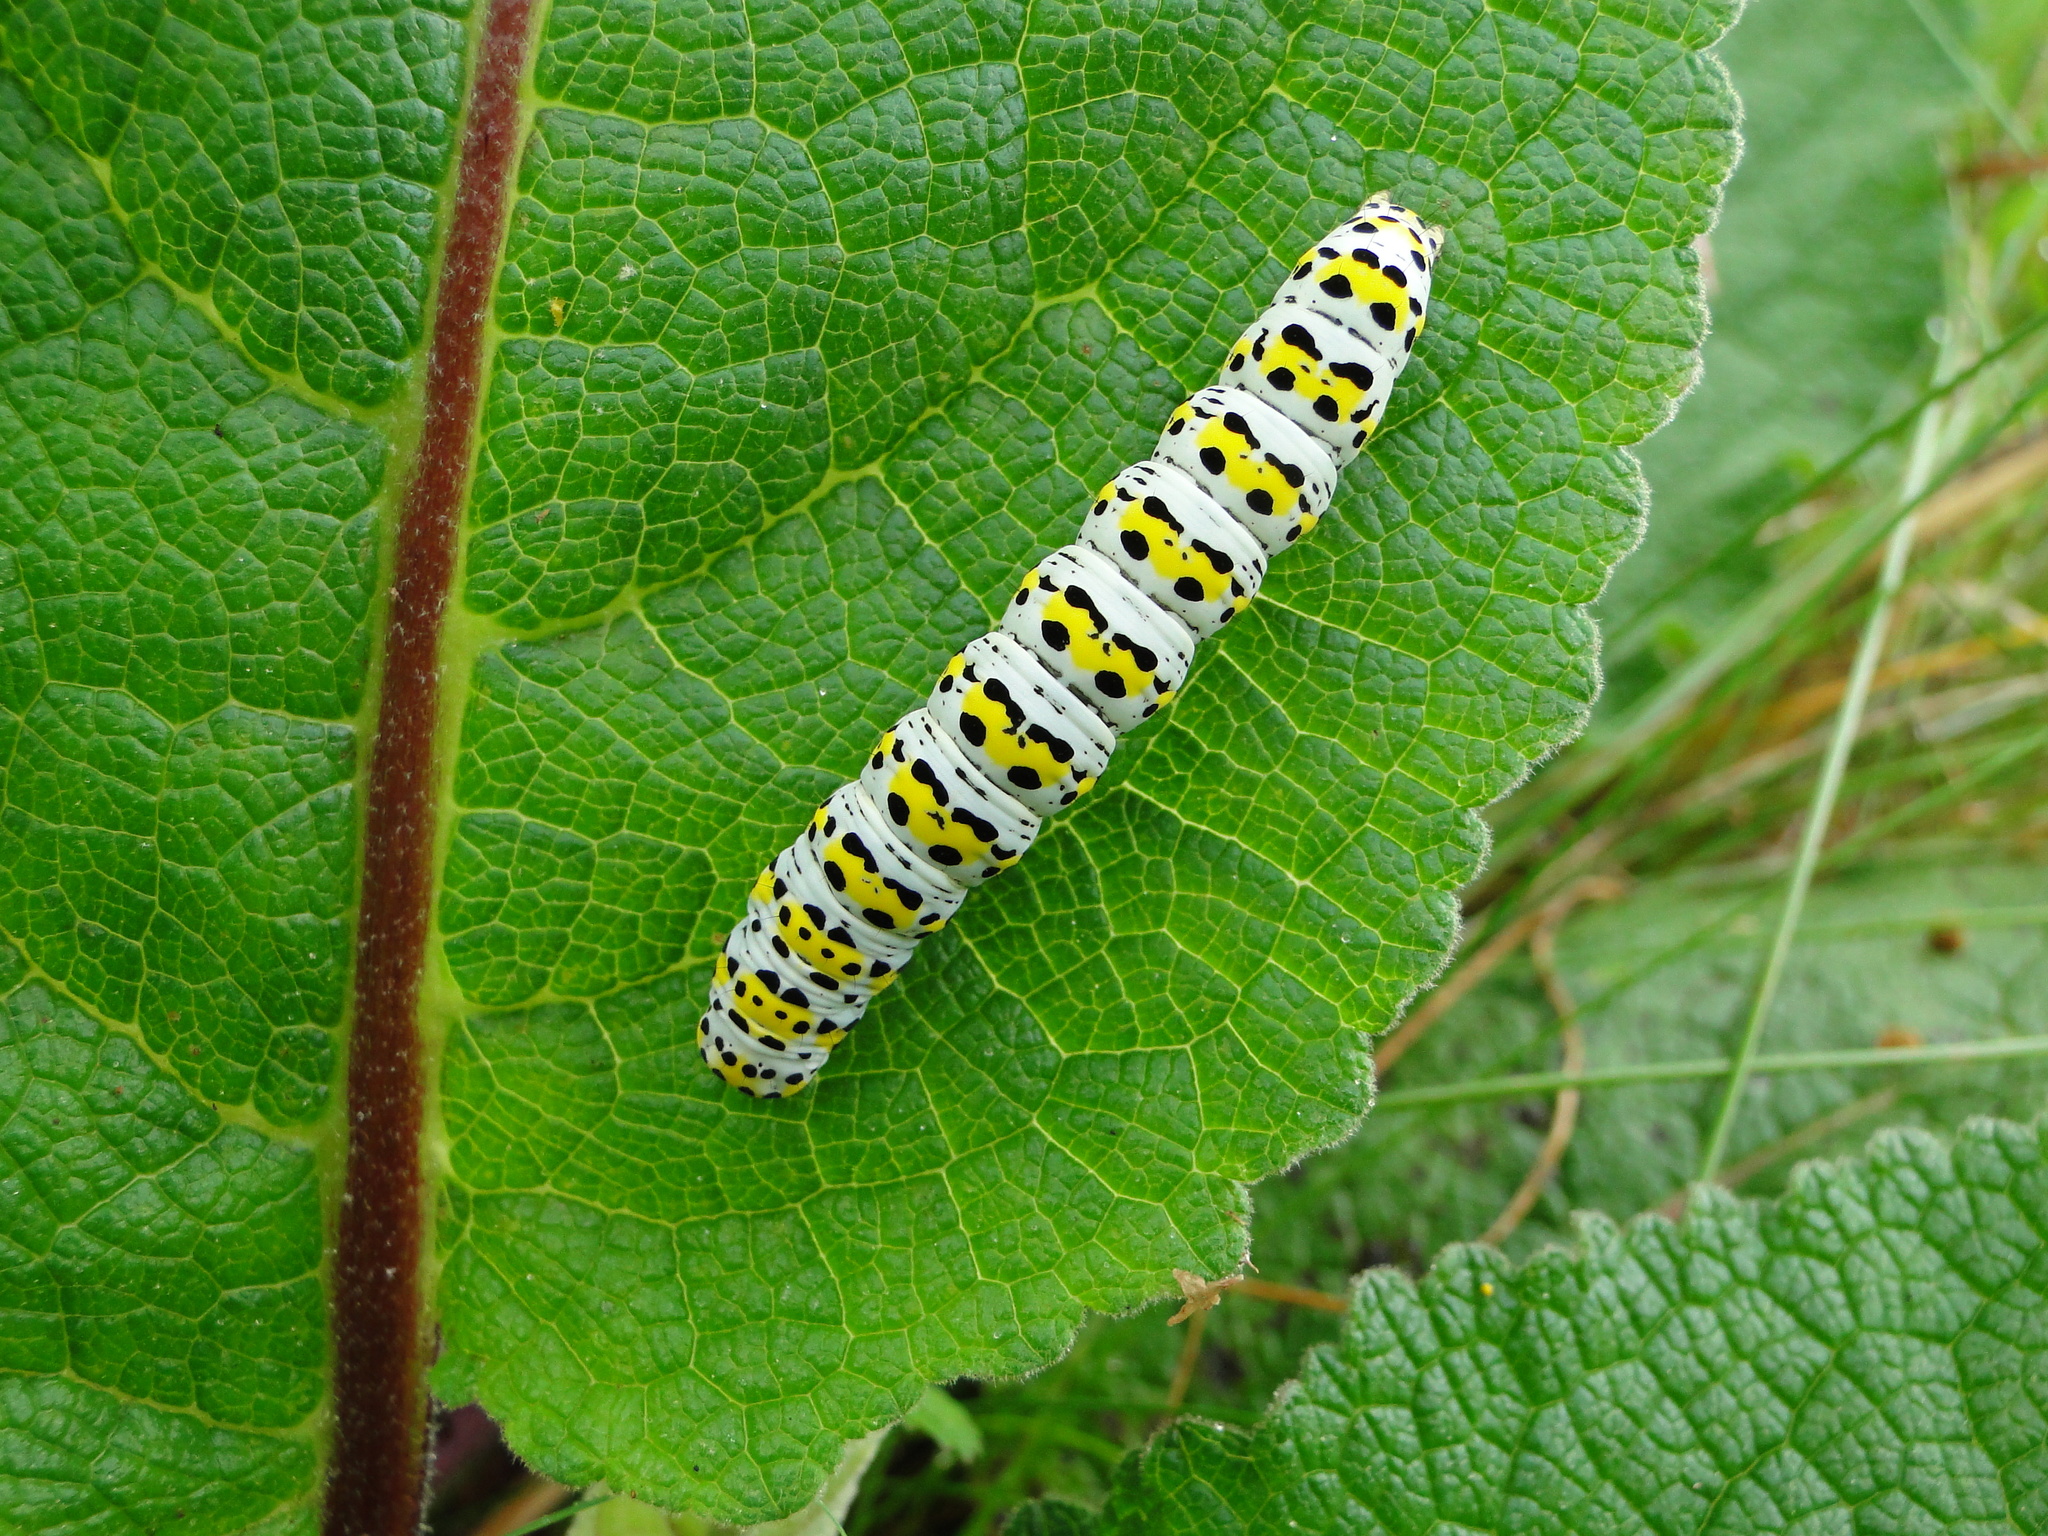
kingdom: Animalia
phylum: Arthropoda
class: Insecta
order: Lepidoptera
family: Noctuidae
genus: Cucullia
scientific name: Cucullia verbasci
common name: Mullein
